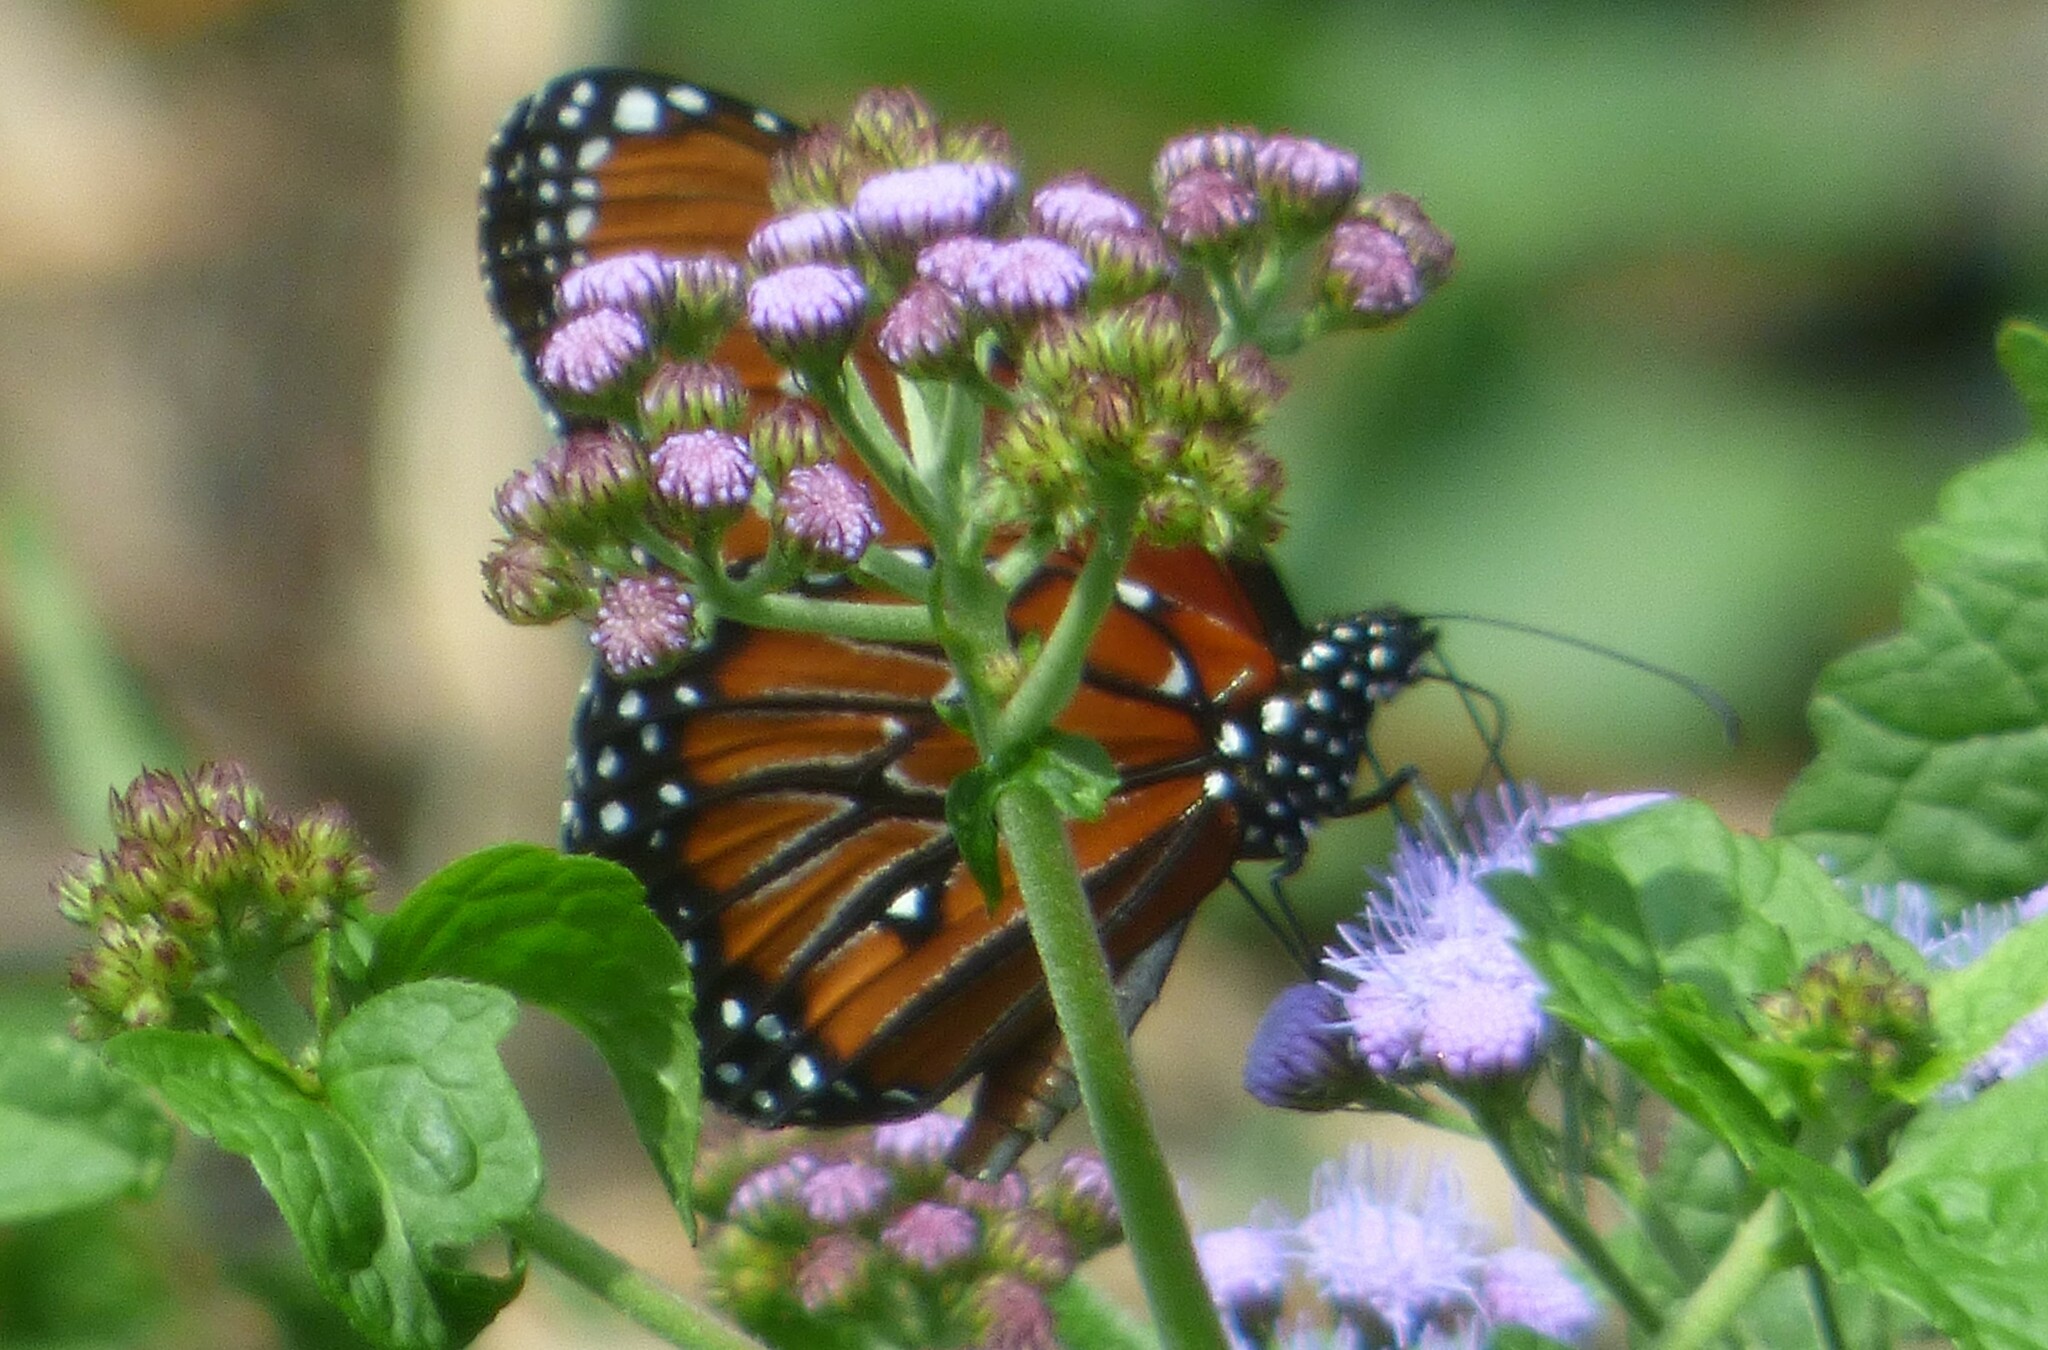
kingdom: Animalia
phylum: Arthropoda
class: Insecta
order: Lepidoptera
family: Nymphalidae
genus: Danaus
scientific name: Danaus gilippus
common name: Queen
